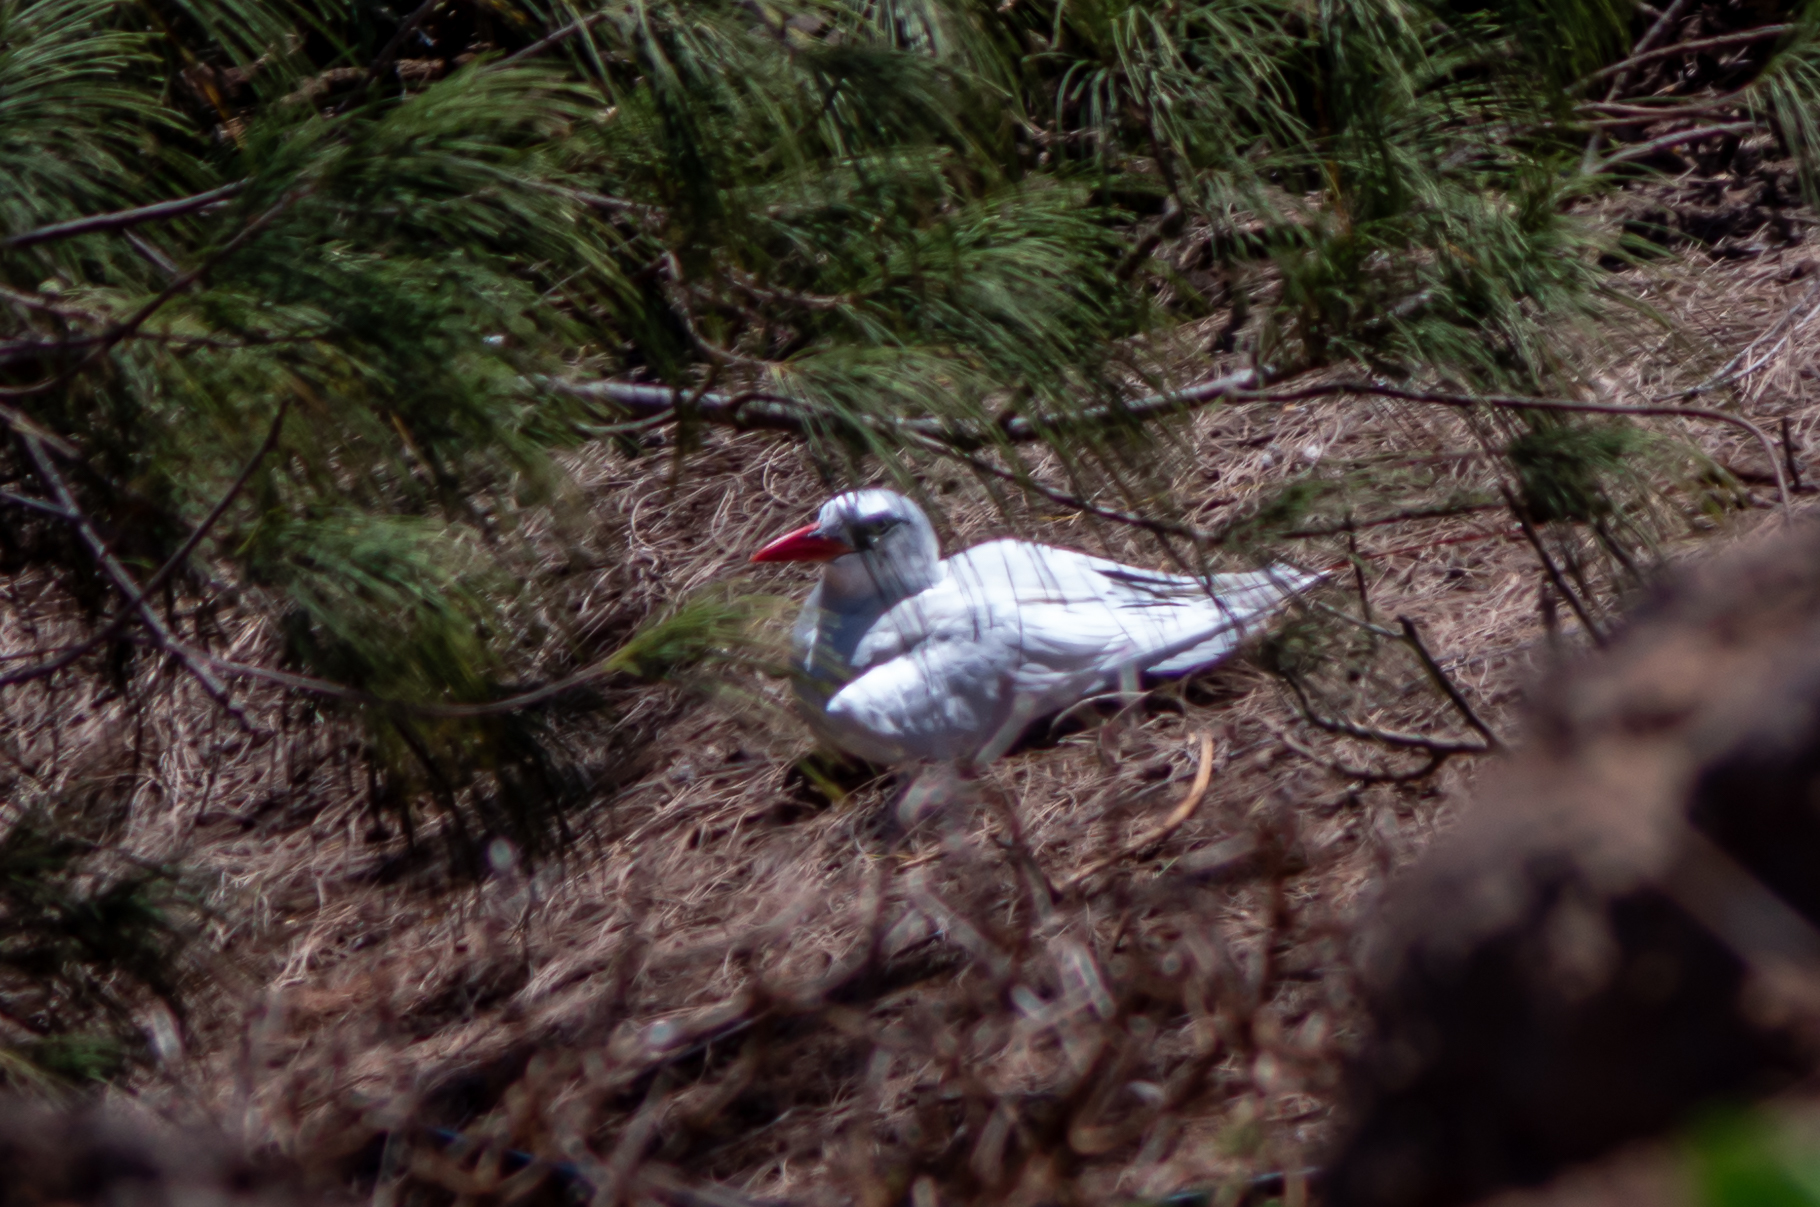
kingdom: Animalia
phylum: Chordata
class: Aves
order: Phaethontiformes
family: Phaethontidae
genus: Phaethon
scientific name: Phaethon rubricauda
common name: Red-tailed tropicbird
